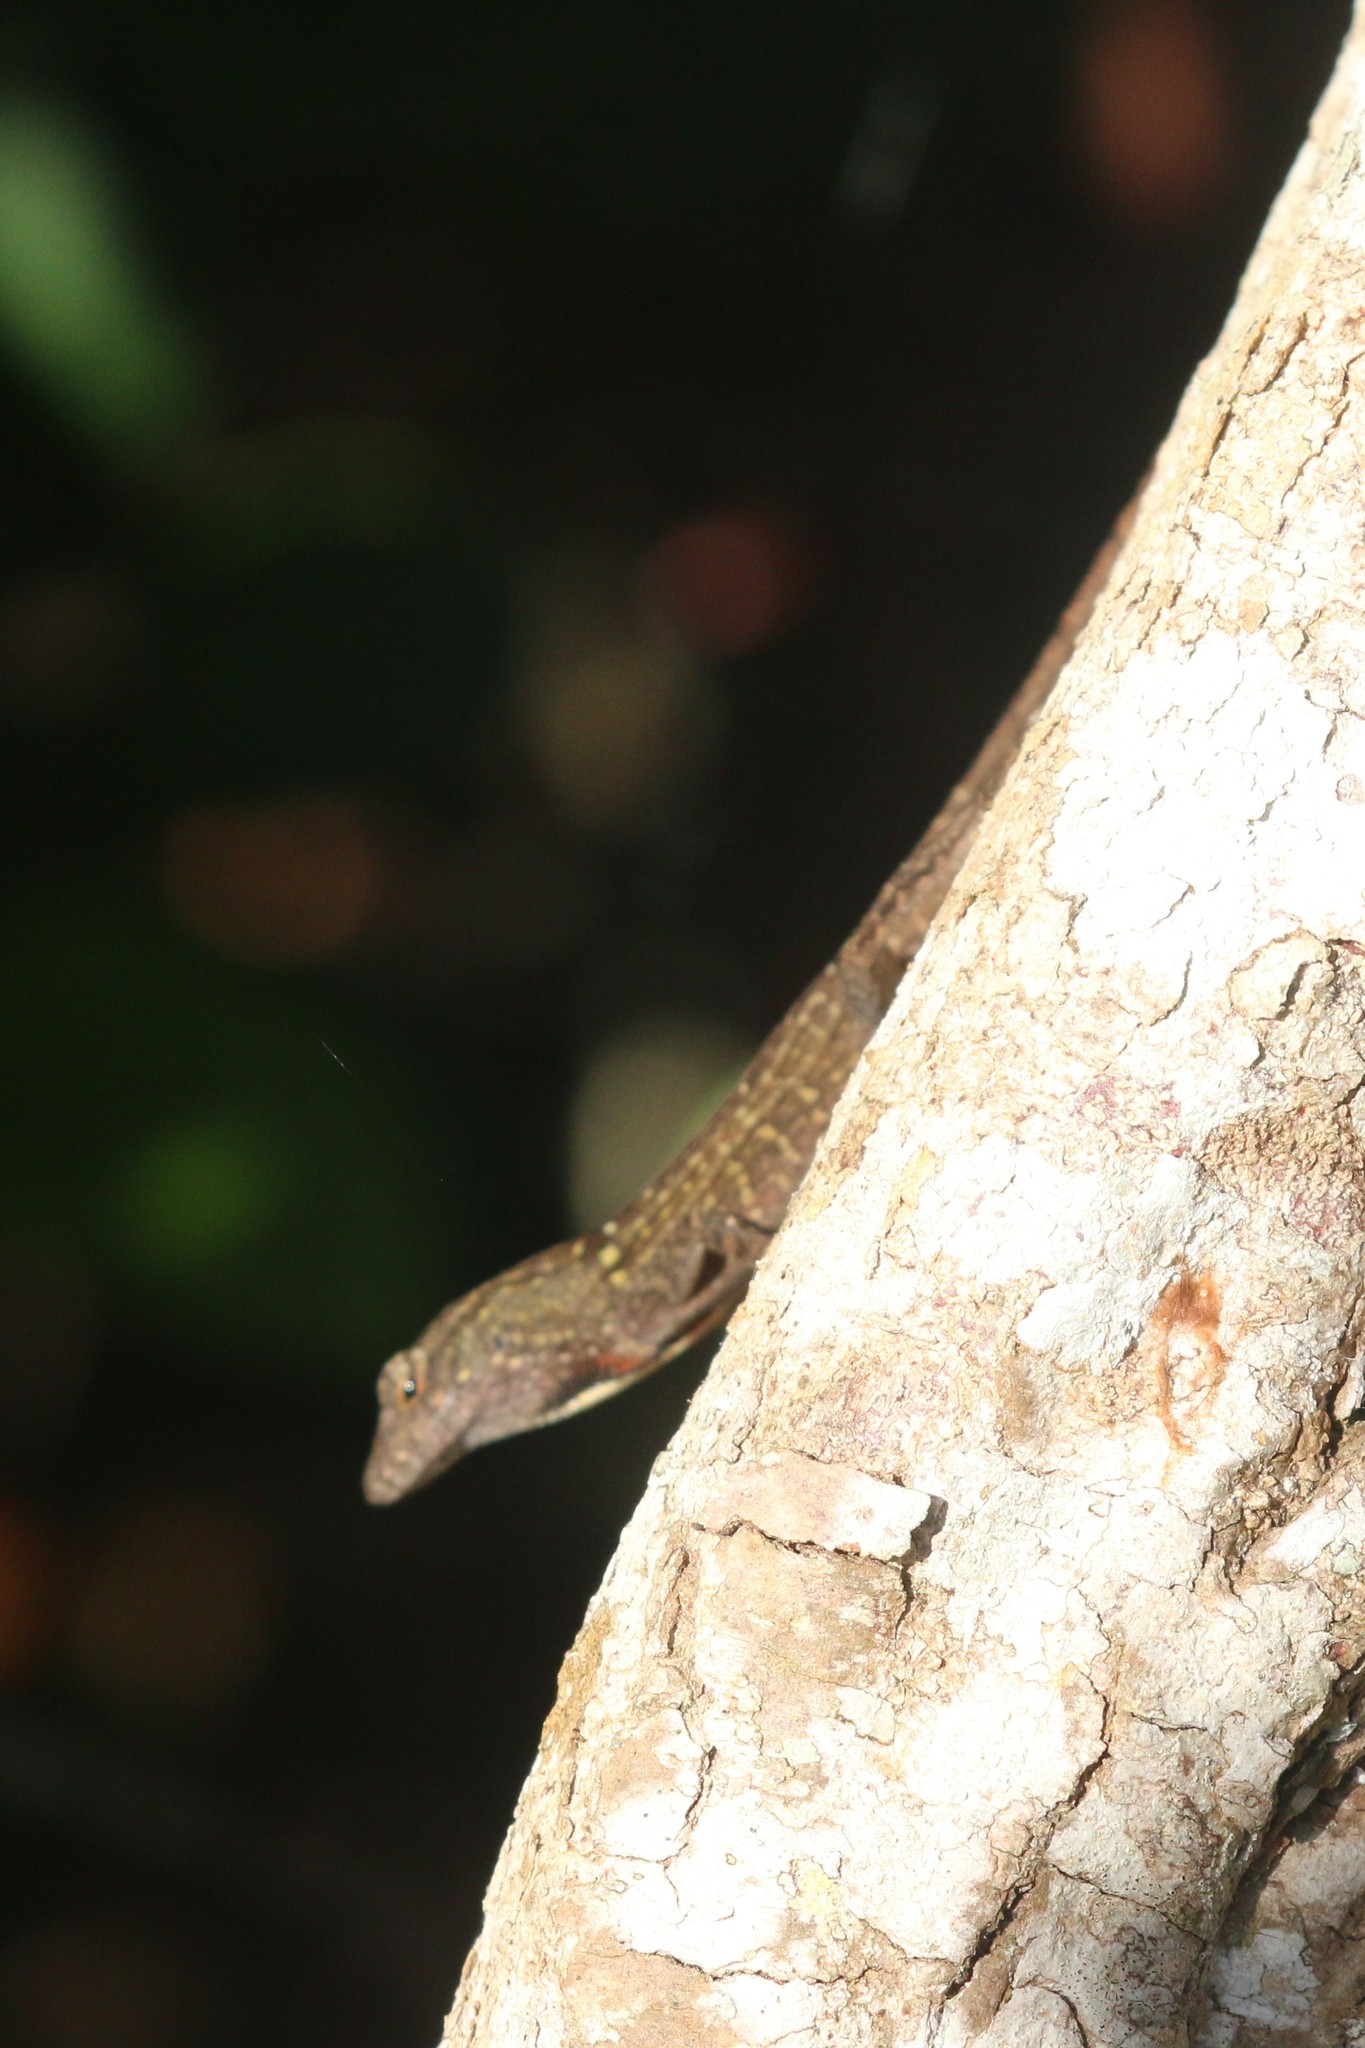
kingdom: Animalia
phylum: Chordata
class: Squamata
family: Dactyloidae
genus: Anolis
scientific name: Anolis sagrei
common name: Brown anole
